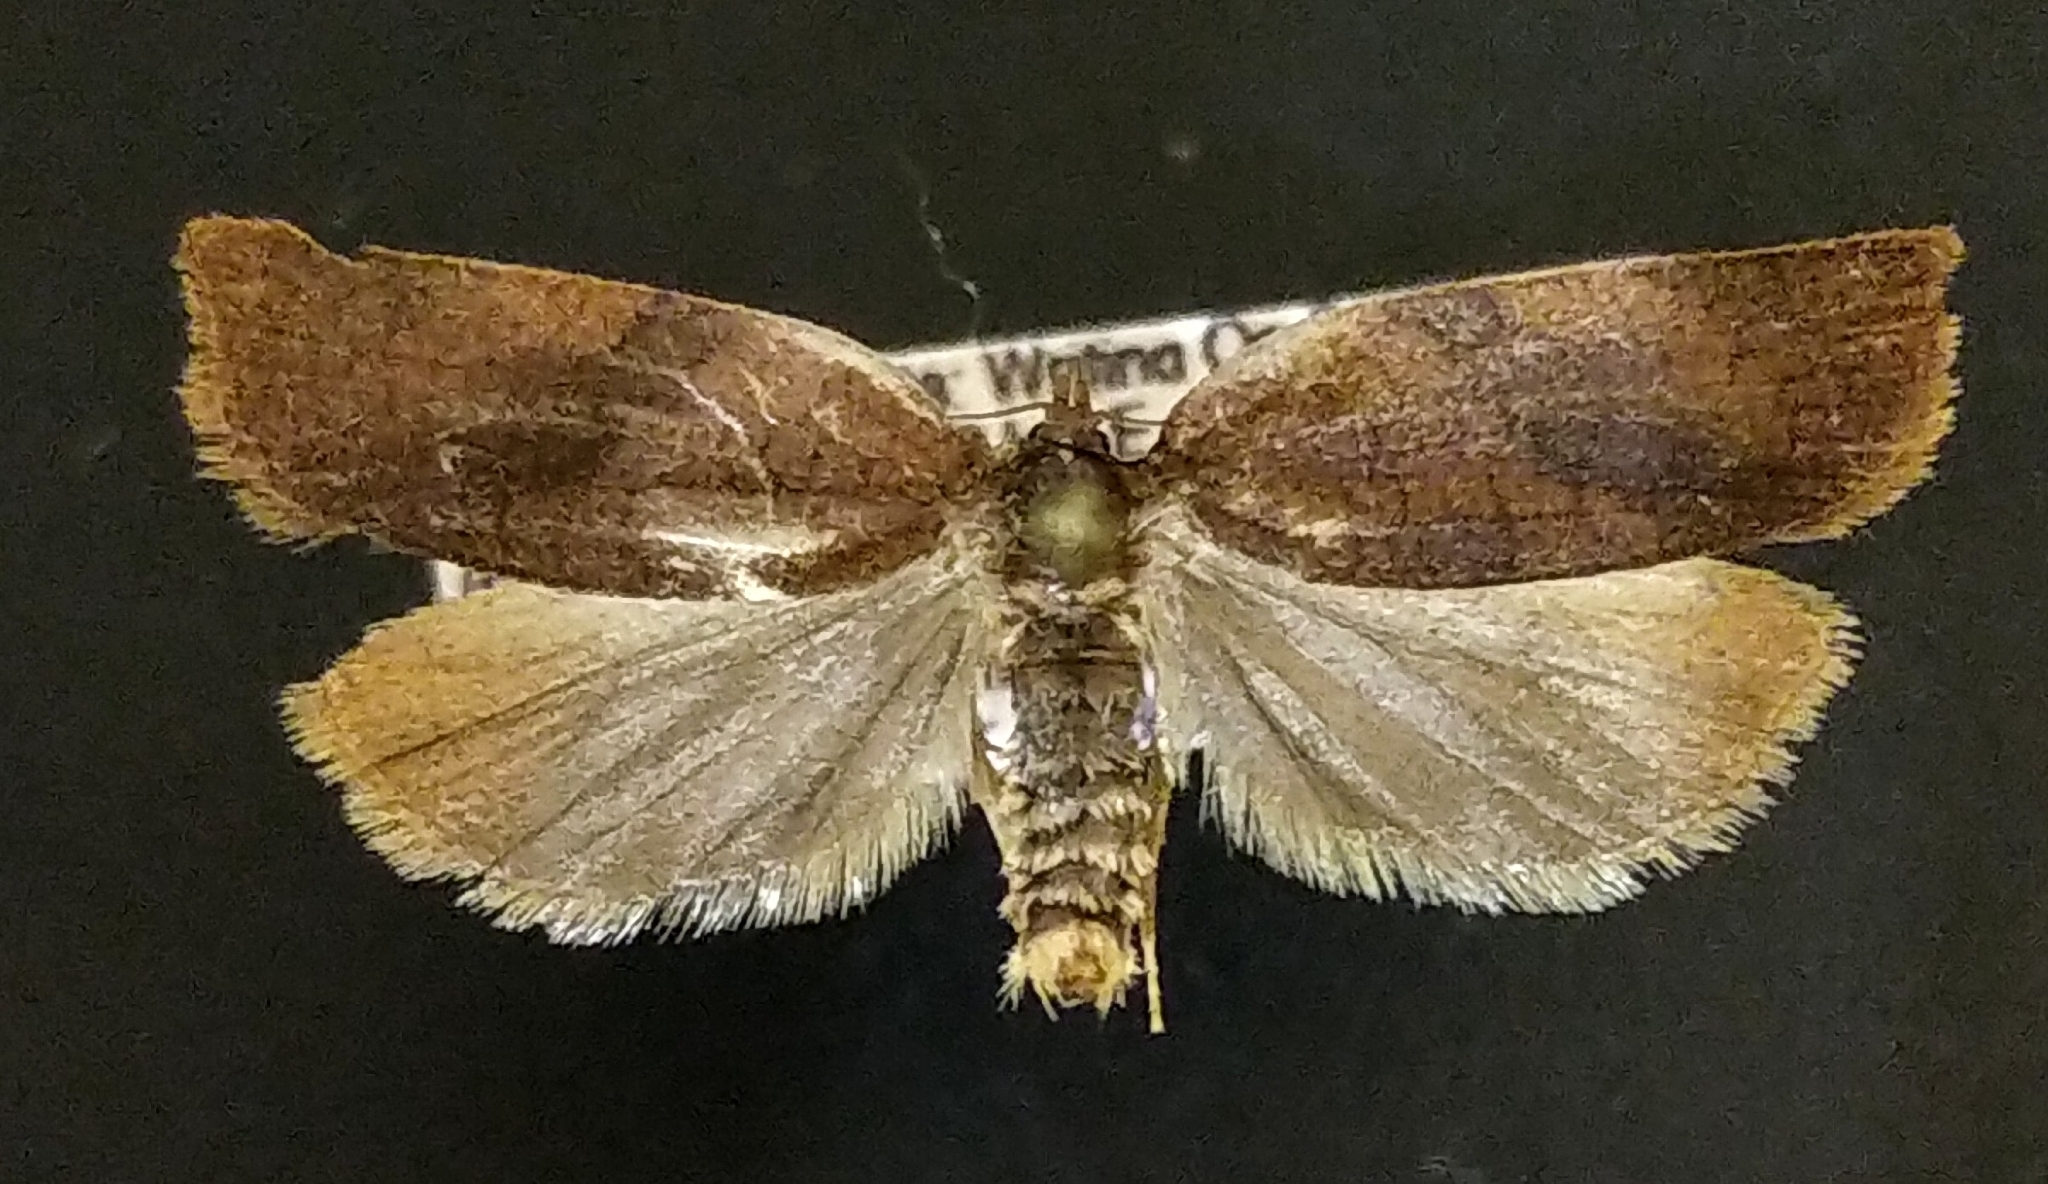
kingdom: Animalia
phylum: Arthropoda
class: Insecta
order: Lepidoptera
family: Tortricidae
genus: Choristoneura
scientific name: Choristoneura rosaceana
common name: Oblique-banded leafroller moth
